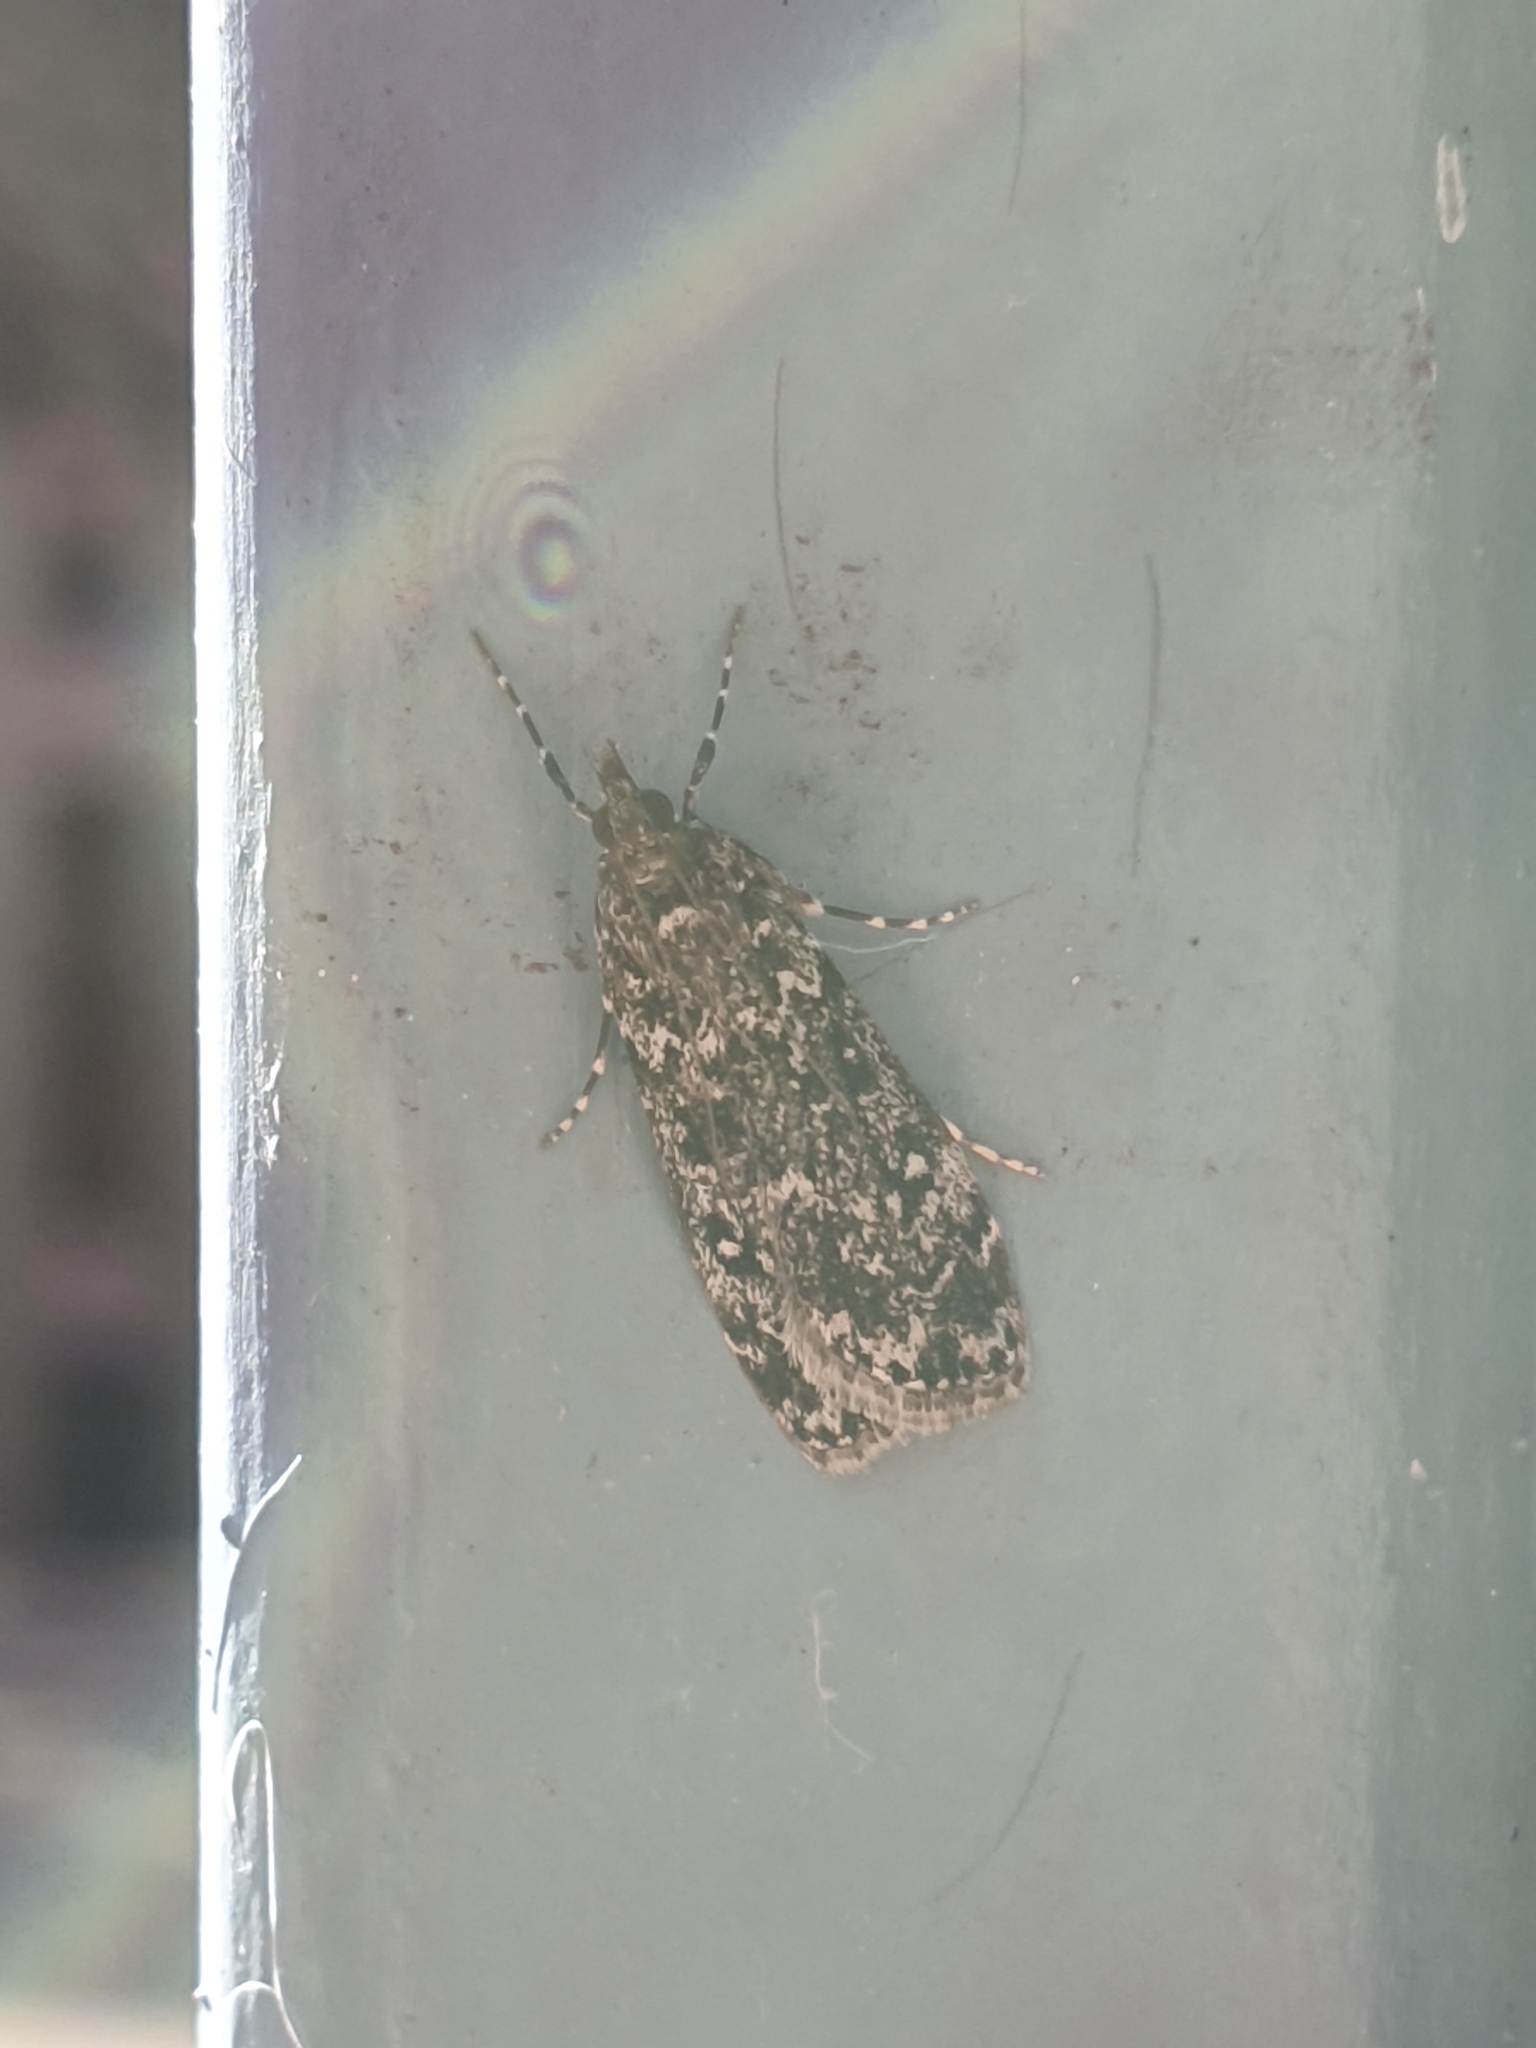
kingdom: Animalia
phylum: Arthropoda
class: Insecta
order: Lepidoptera
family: Crambidae
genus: Eudonia
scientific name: Eudonia philerga
